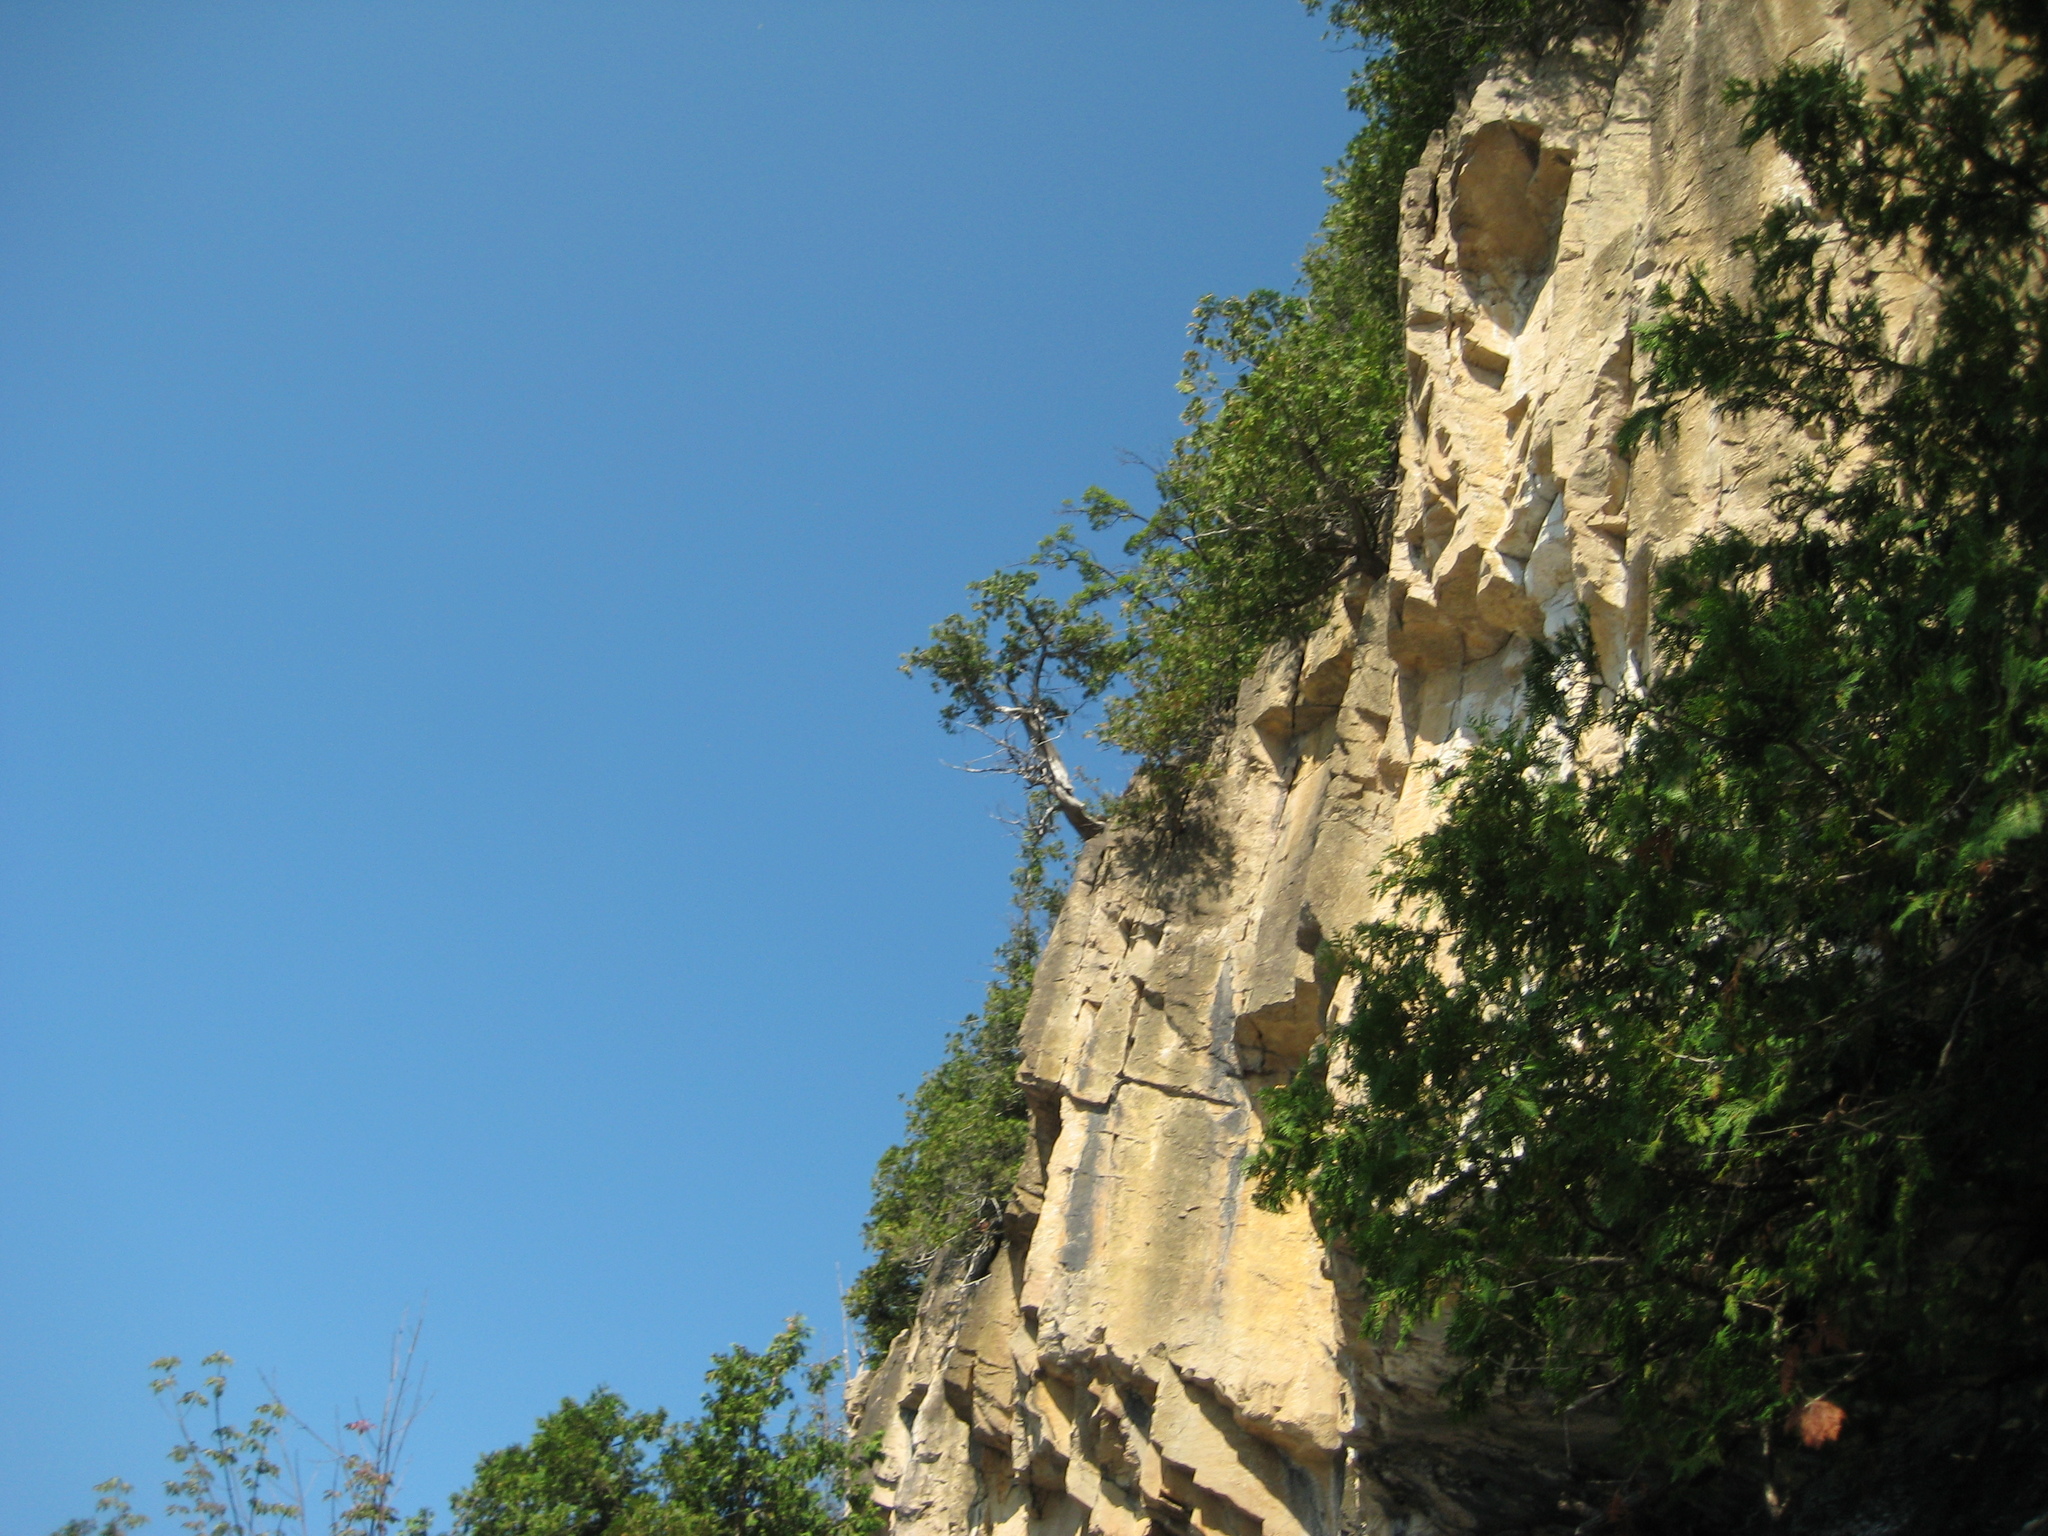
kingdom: Plantae
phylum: Tracheophyta
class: Pinopsida
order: Pinales
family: Cupressaceae
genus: Thuja
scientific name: Thuja occidentalis
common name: Northern white-cedar
